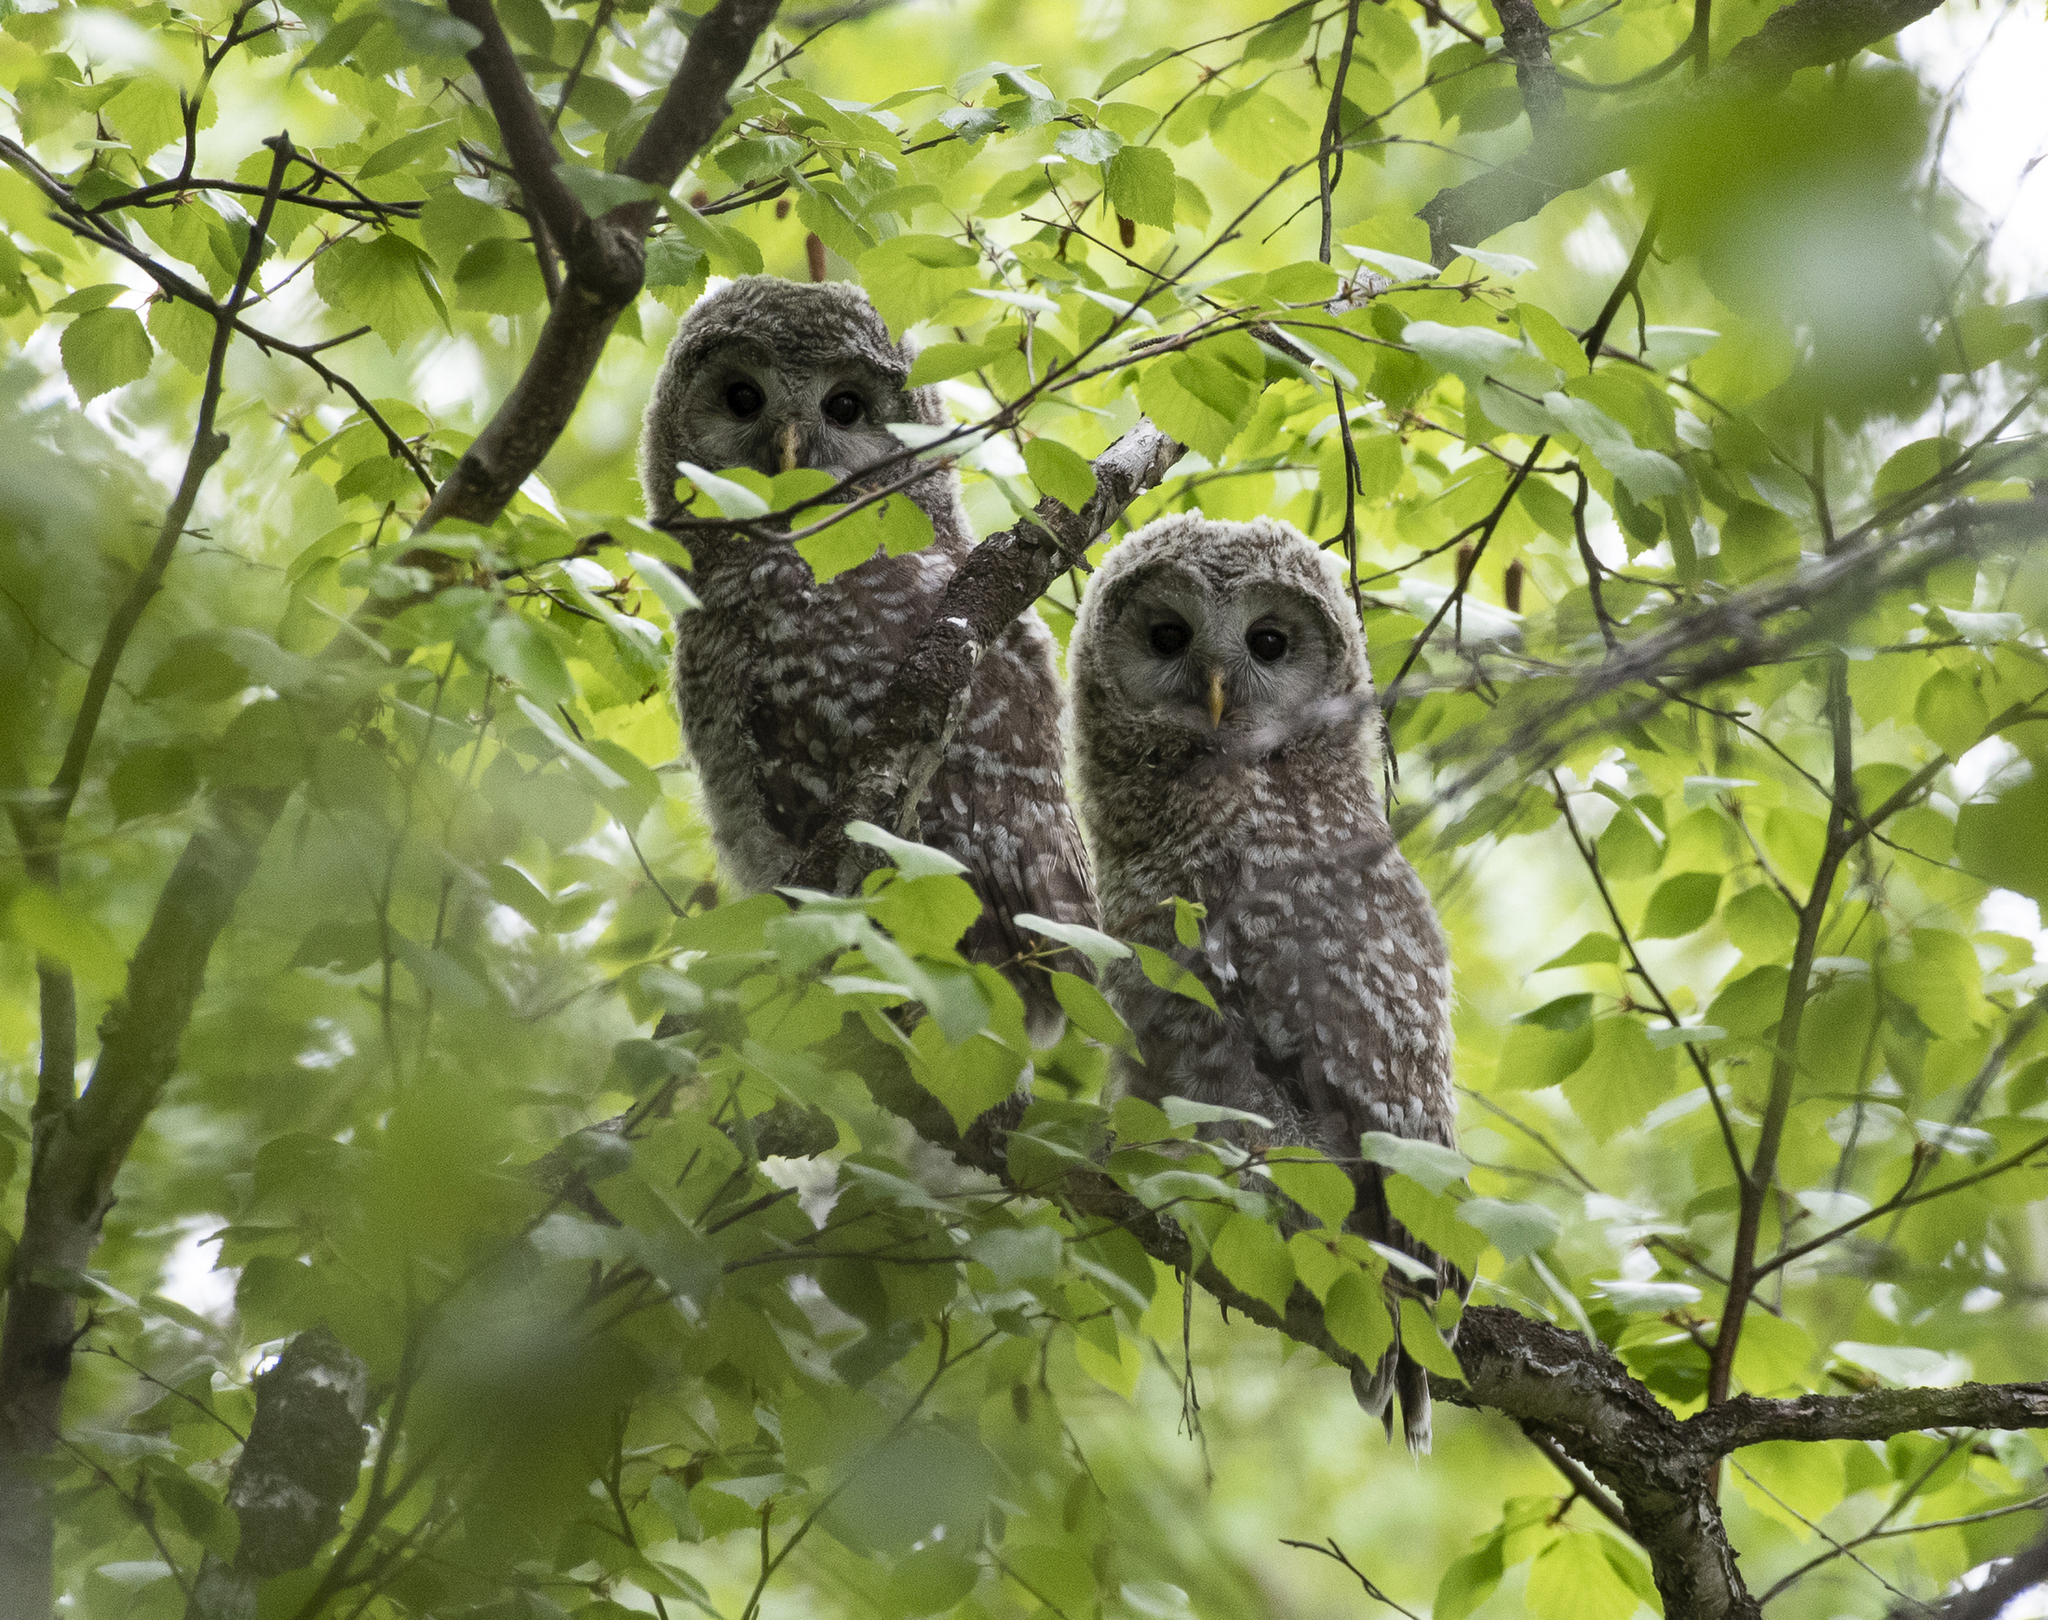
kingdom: Animalia
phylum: Chordata
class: Aves
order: Strigiformes
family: Strigidae
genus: Strix
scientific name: Strix uralensis
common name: Ural owl
